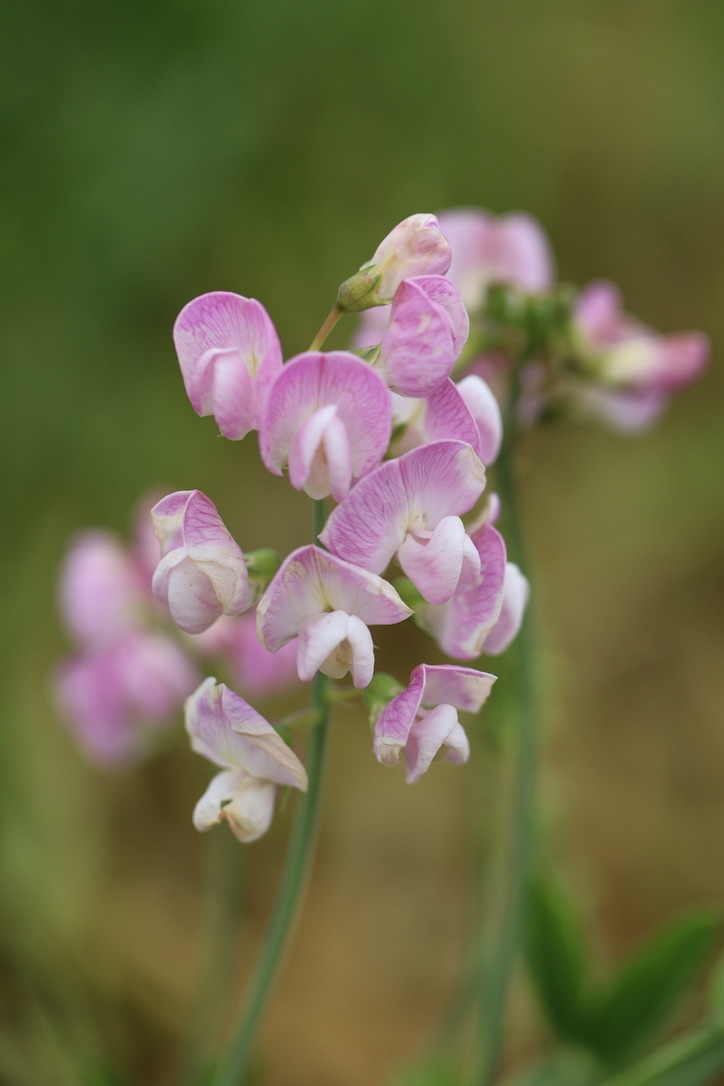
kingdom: Plantae
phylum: Tracheophyta
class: Magnoliopsida
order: Fabales
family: Fabaceae
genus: Lathyrus
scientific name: Lathyrus latifolius
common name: Perennial pea
